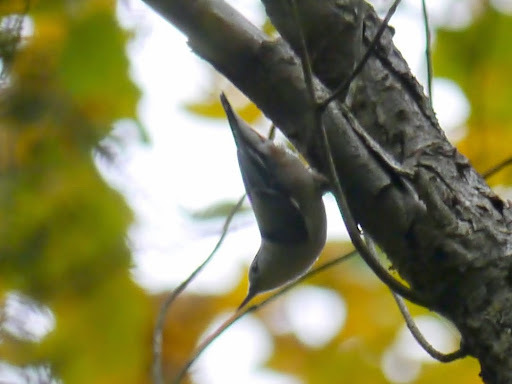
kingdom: Animalia
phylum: Chordata
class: Aves
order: Passeriformes
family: Sittidae
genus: Sitta
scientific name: Sitta carolinensis
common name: White-breasted nuthatch
